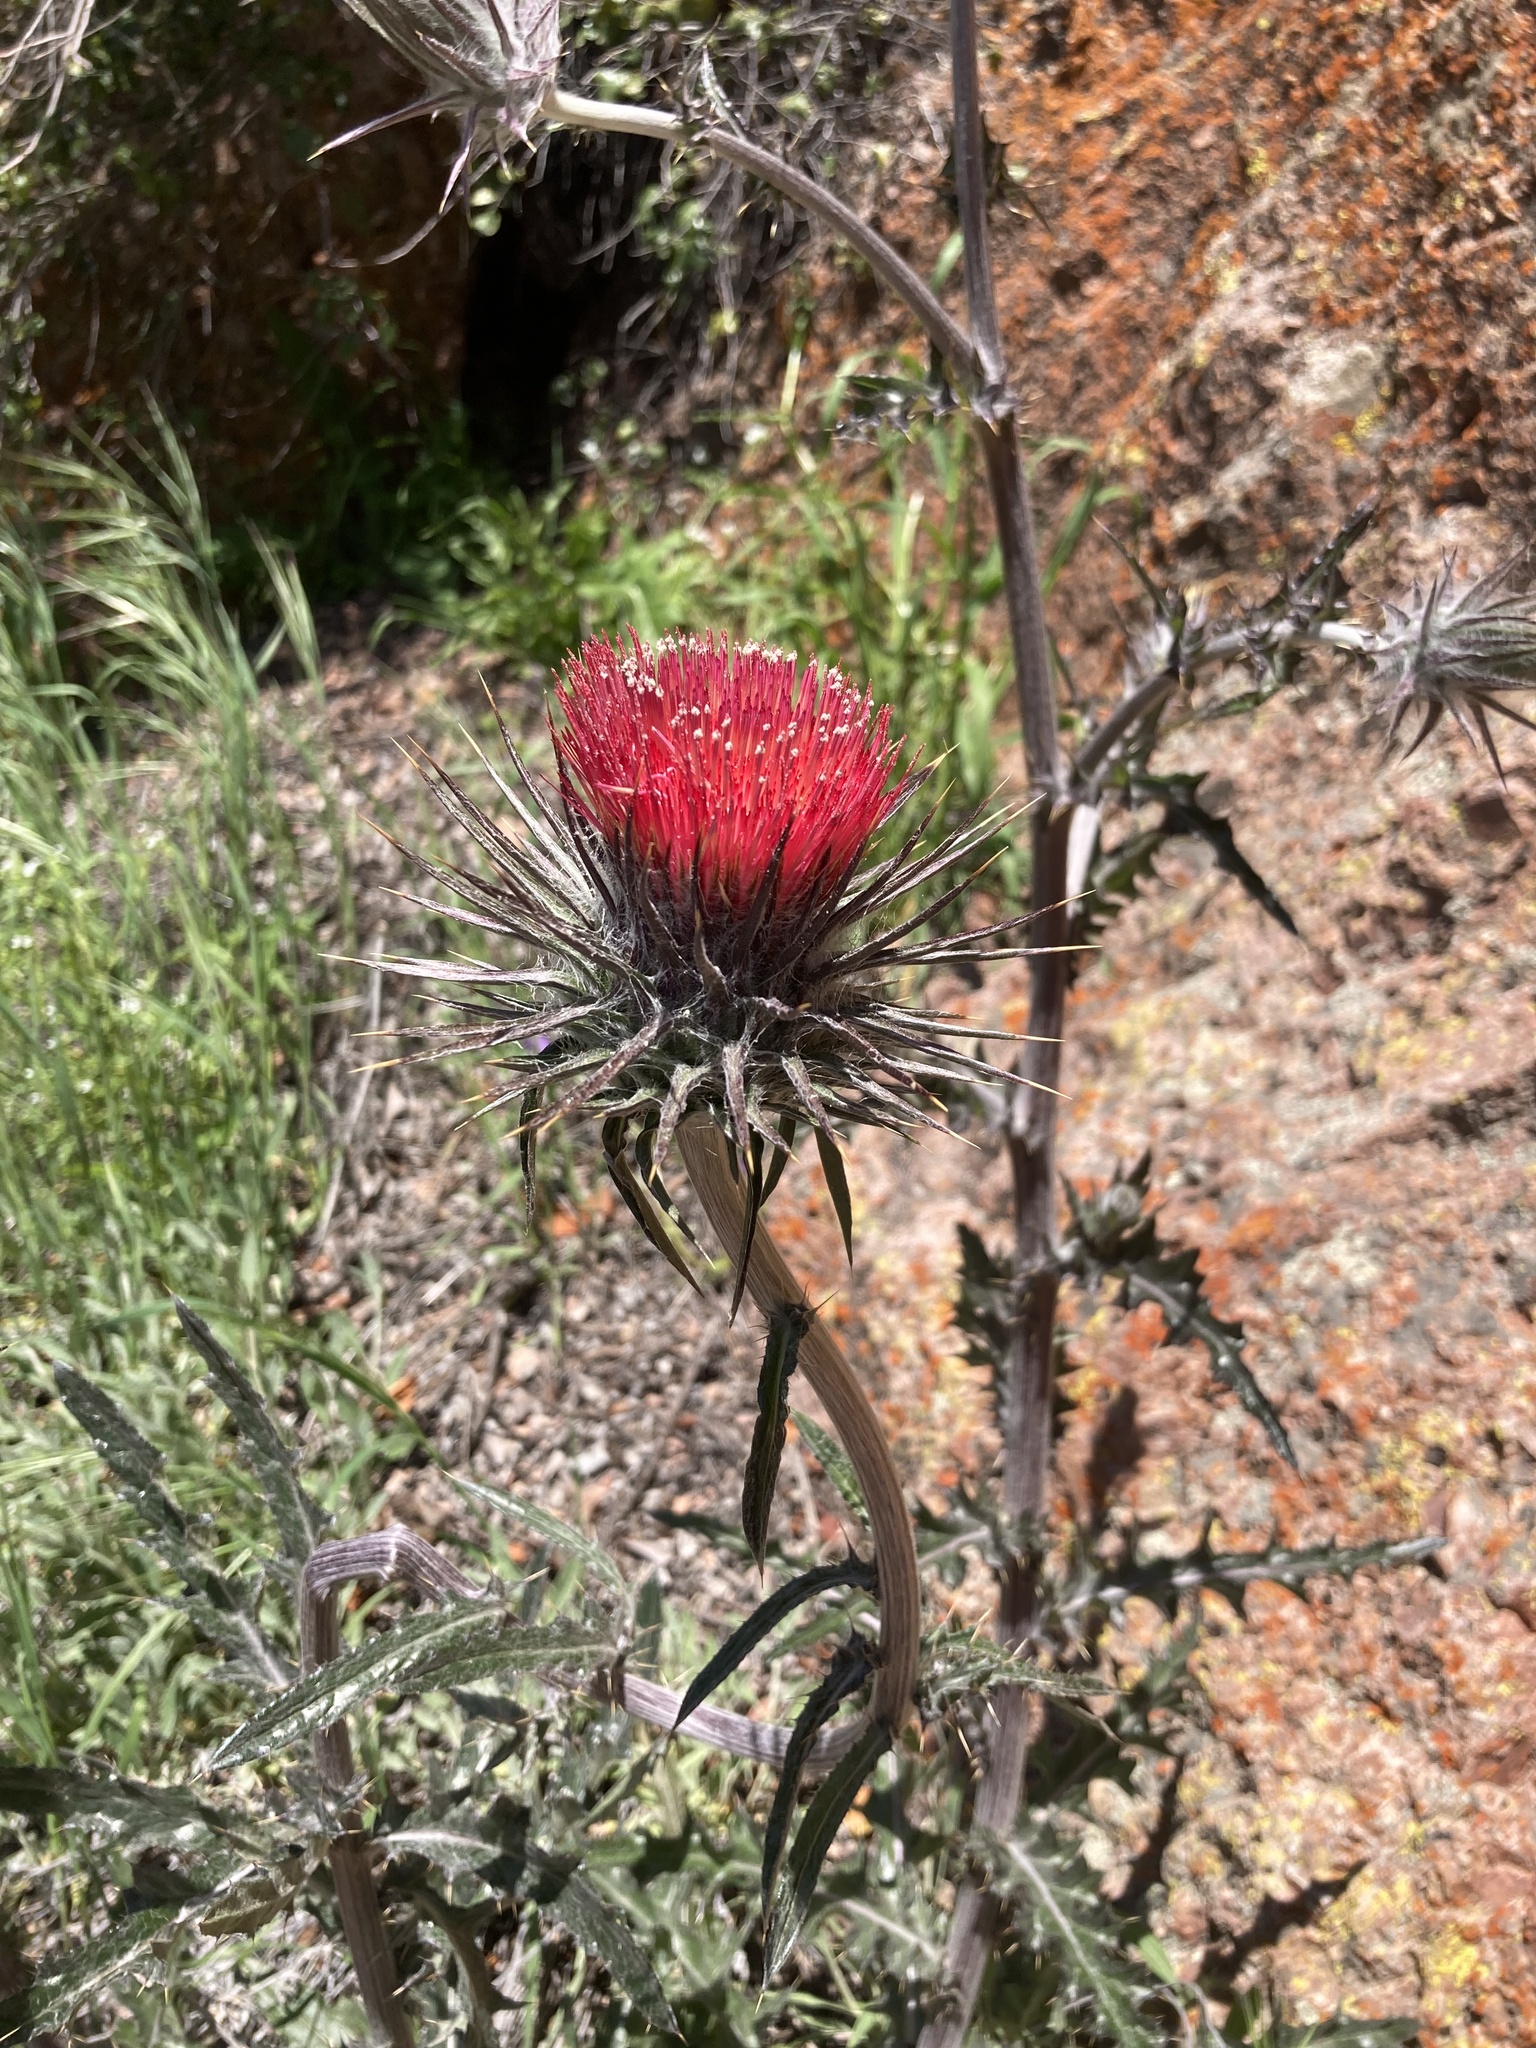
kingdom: Plantae
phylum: Tracheophyta
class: Magnoliopsida
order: Asterales
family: Asteraceae
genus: Cirsium
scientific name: Cirsium occidentale
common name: Western thistle
